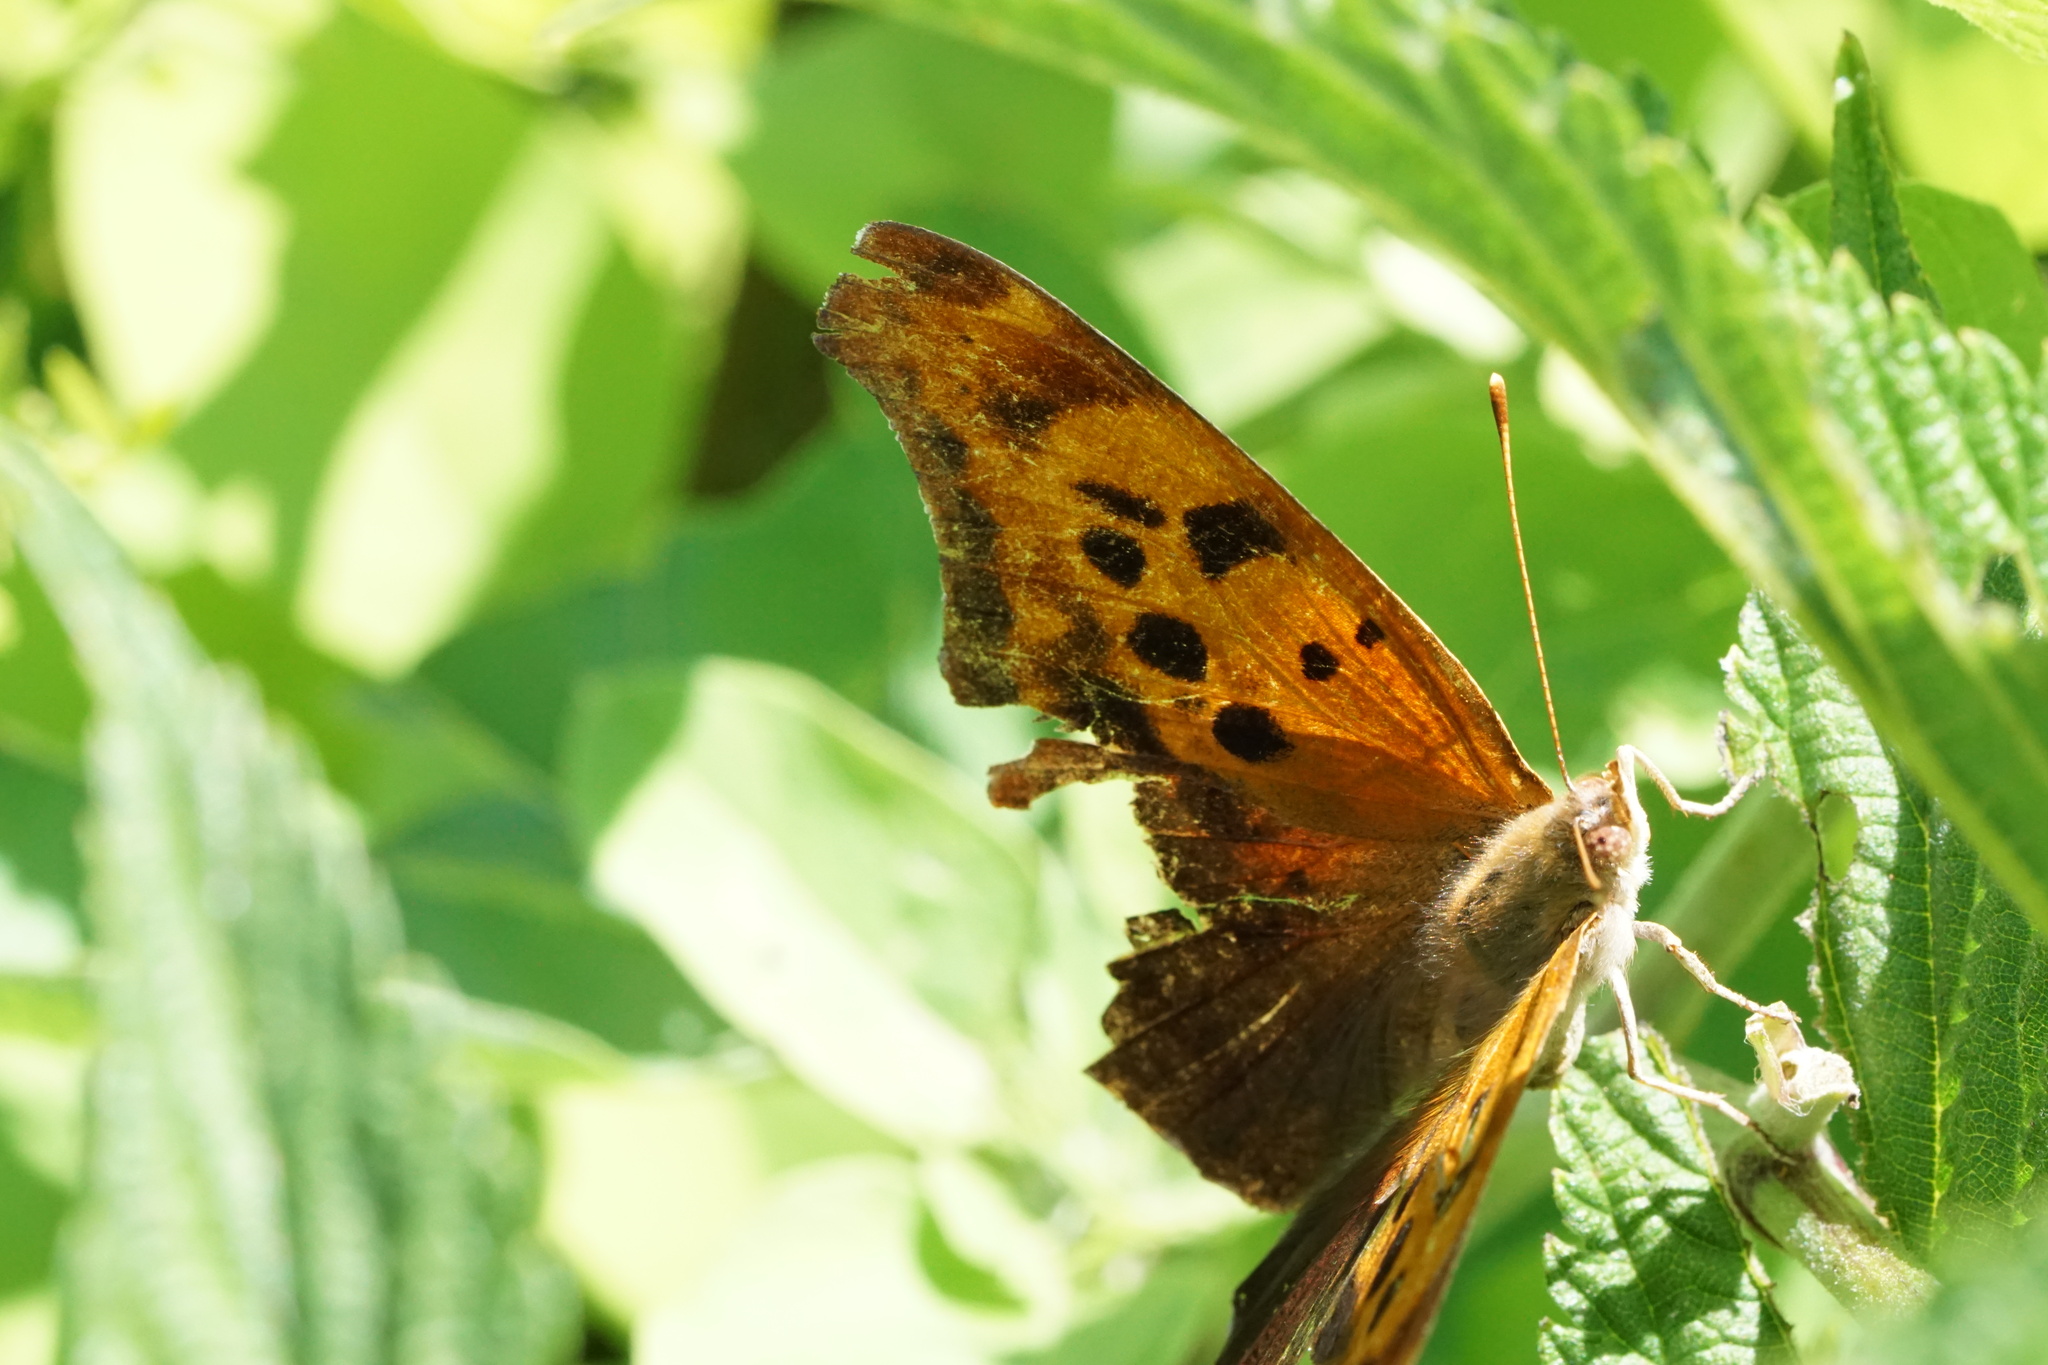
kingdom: Animalia
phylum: Arthropoda
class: Insecta
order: Lepidoptera
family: Nymphalidae
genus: Polygonia
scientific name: Polygonia interrogationis
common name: Question mark
